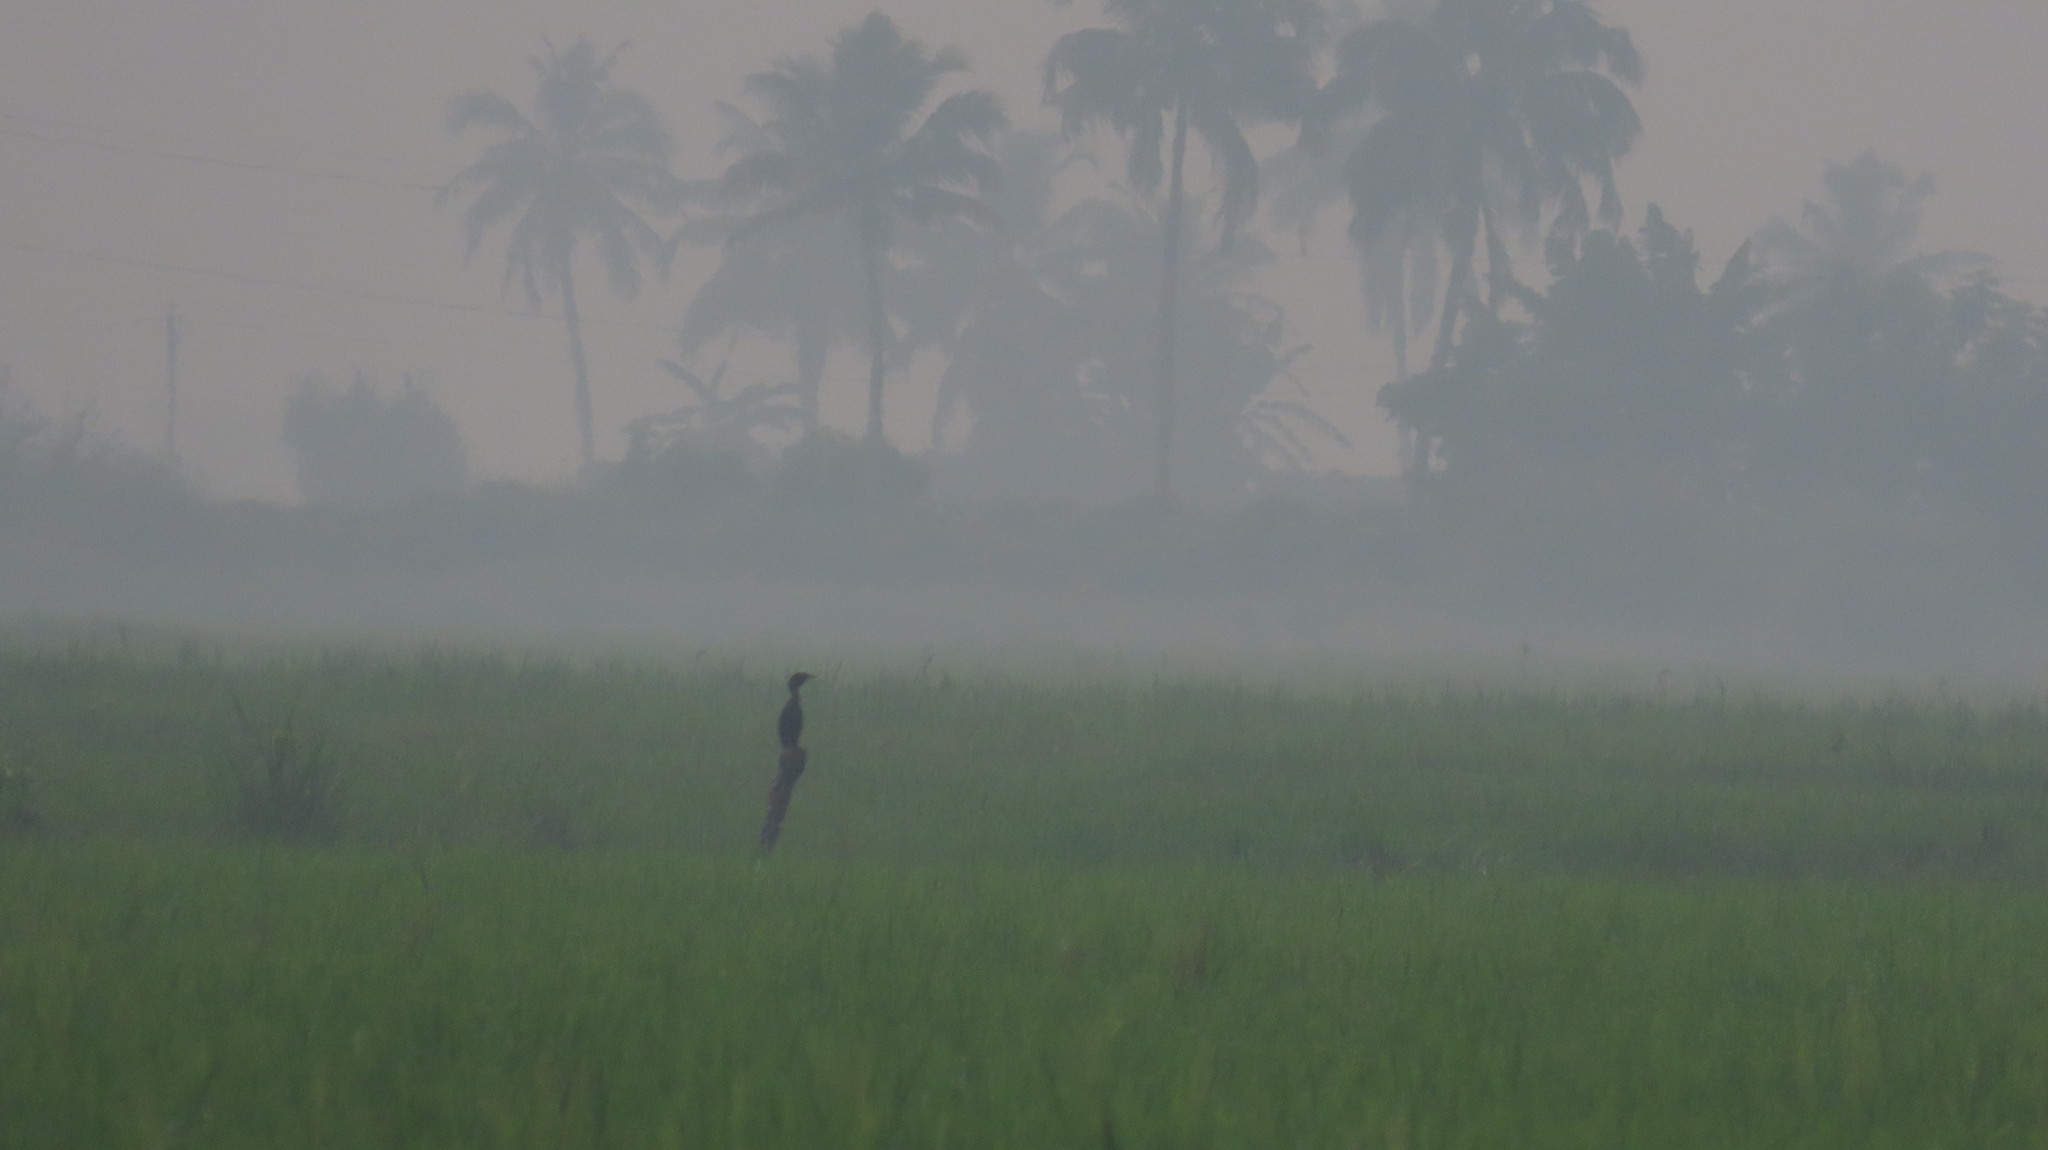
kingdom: Animalia
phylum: Chordata
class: Aves
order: Suliformes
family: Phalacrocoracidae
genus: Microcarbo
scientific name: Microcarbo niger
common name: Little cormorant
